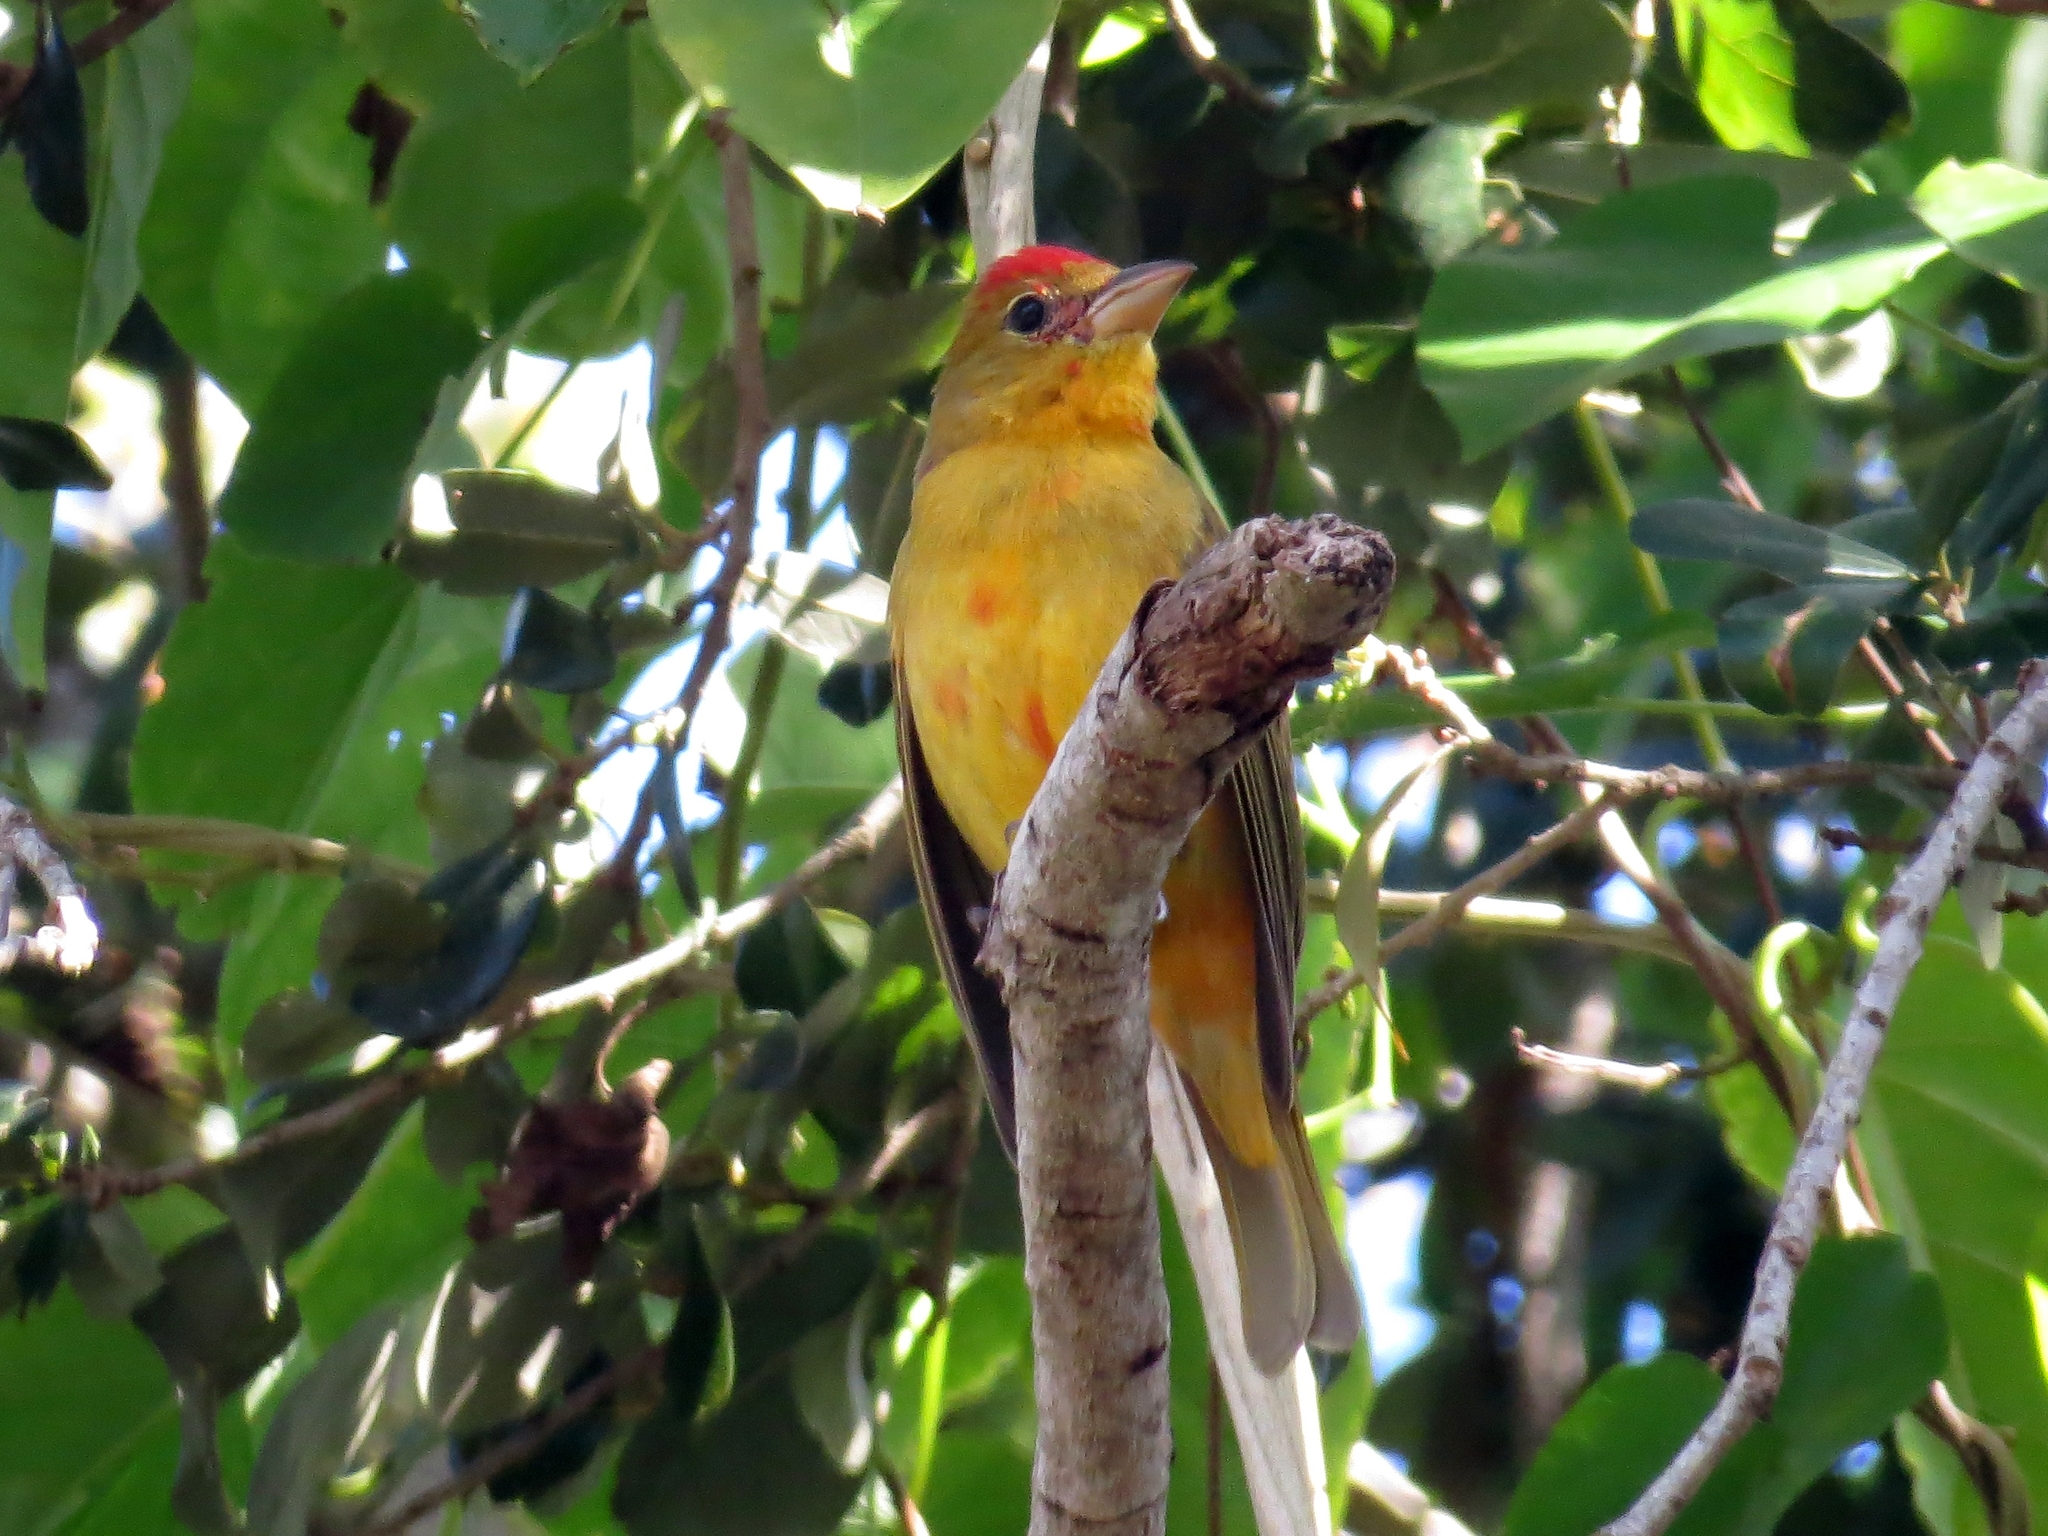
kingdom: Animalia
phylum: Chordata
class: Aves
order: Passeriformes
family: Cardinalidae
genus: Piranga
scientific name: Piranga rubra
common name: Summer tanager
